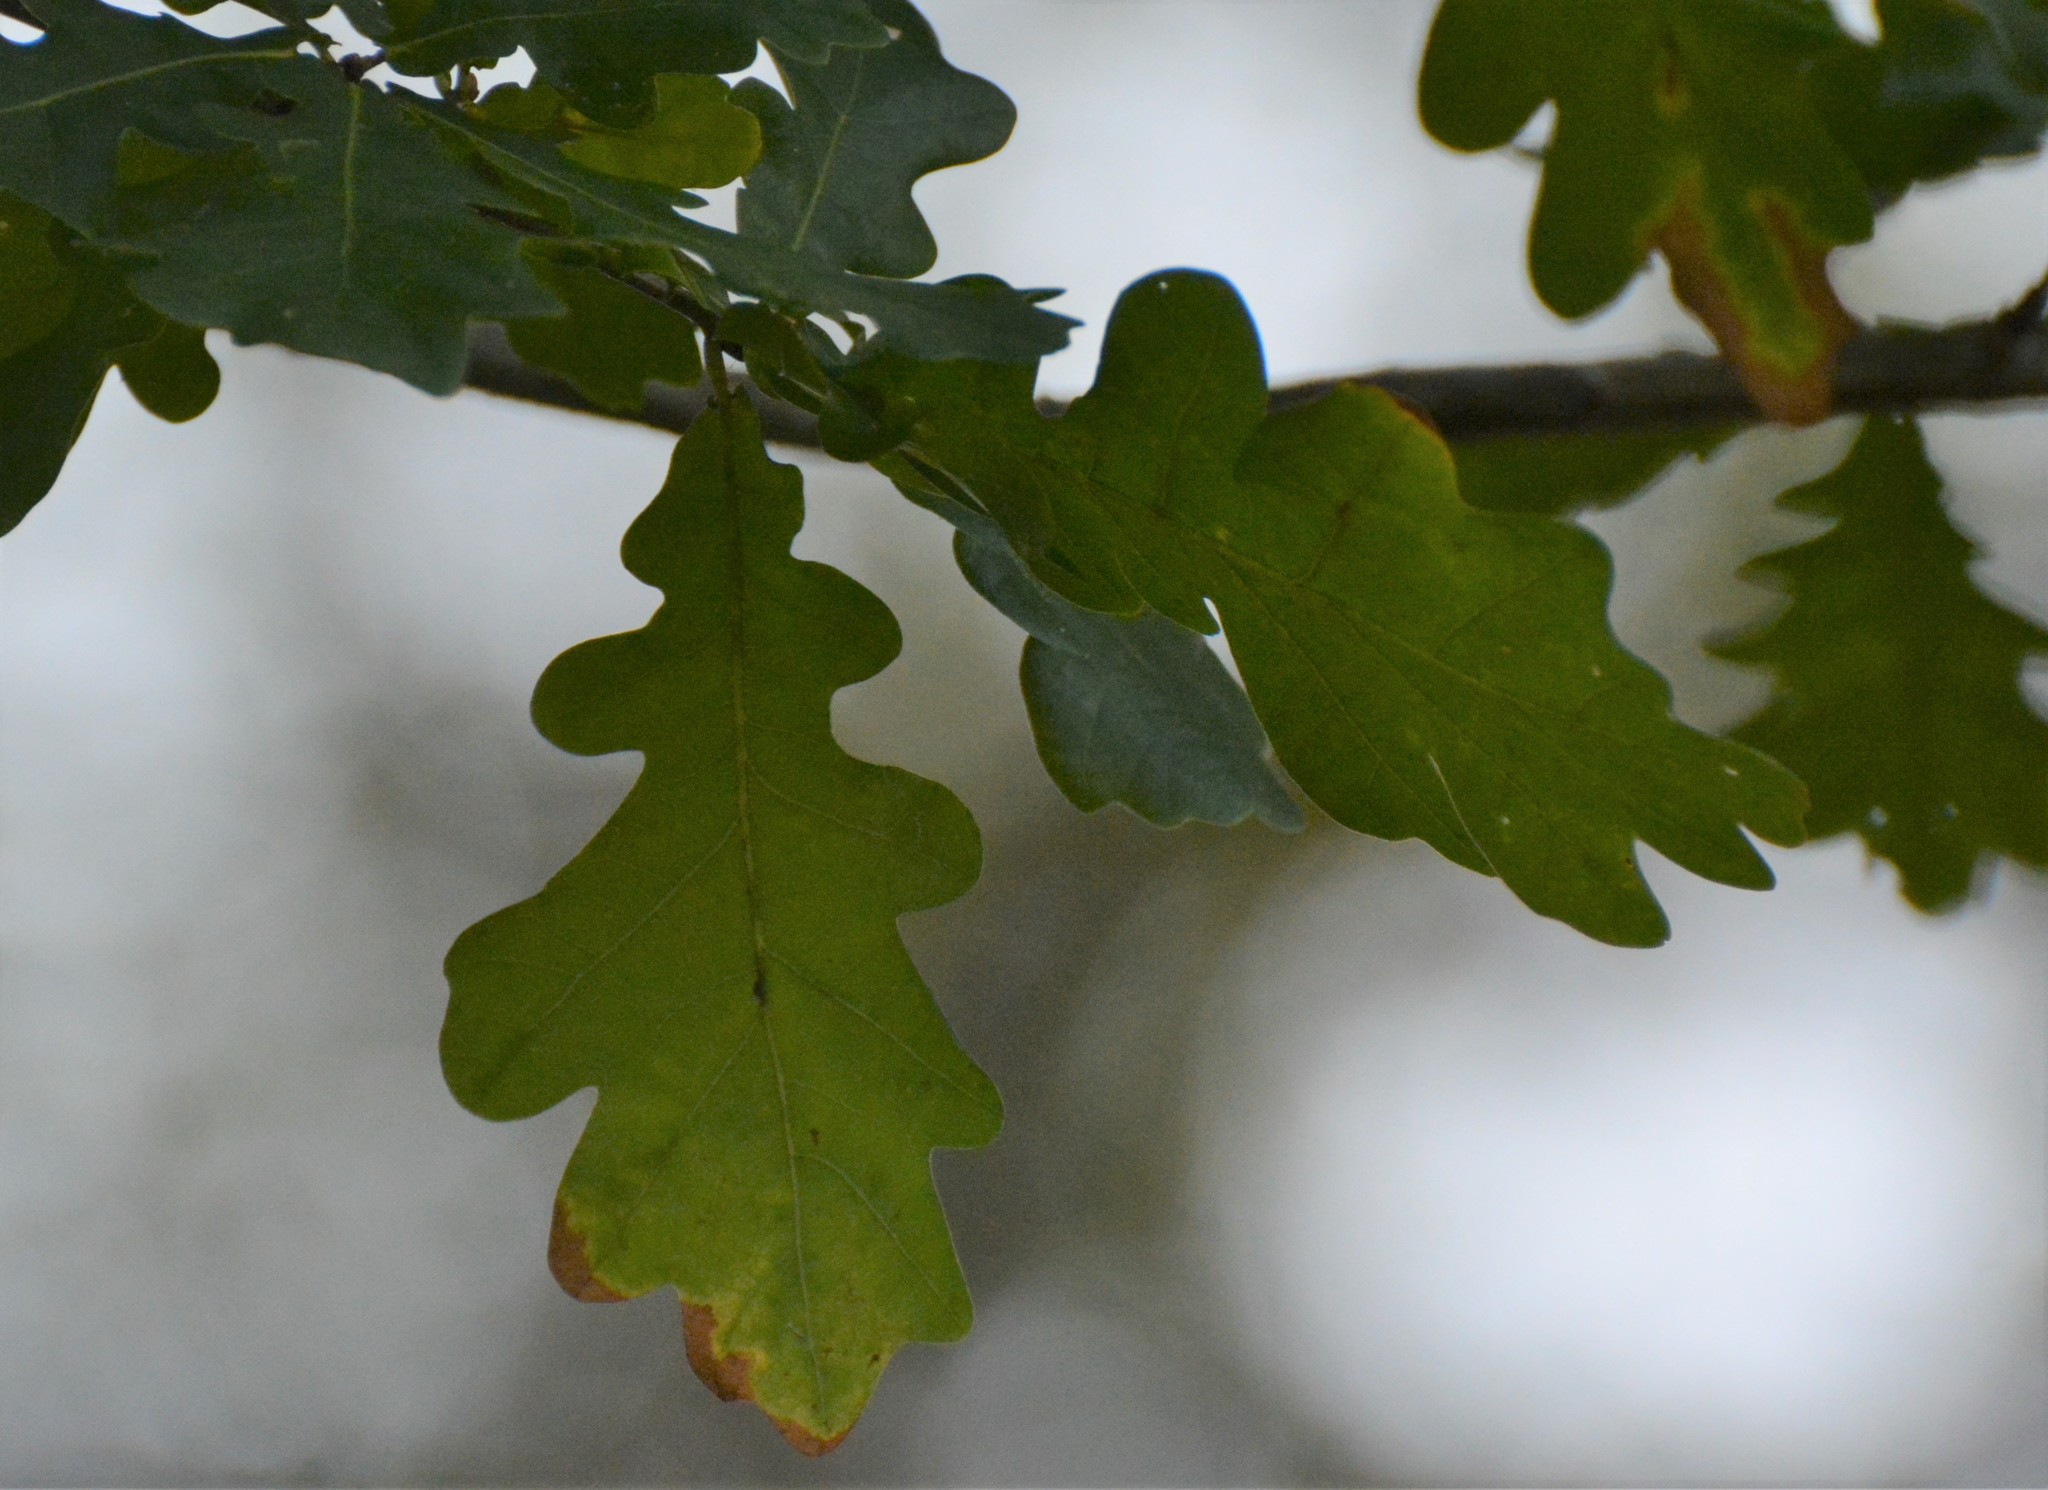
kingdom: Plantae
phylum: Tracheophyta
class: Magnoliopsida
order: Fagales
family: Fagaceae
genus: Quercus
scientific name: Quercus robur
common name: Pedunculate oak
